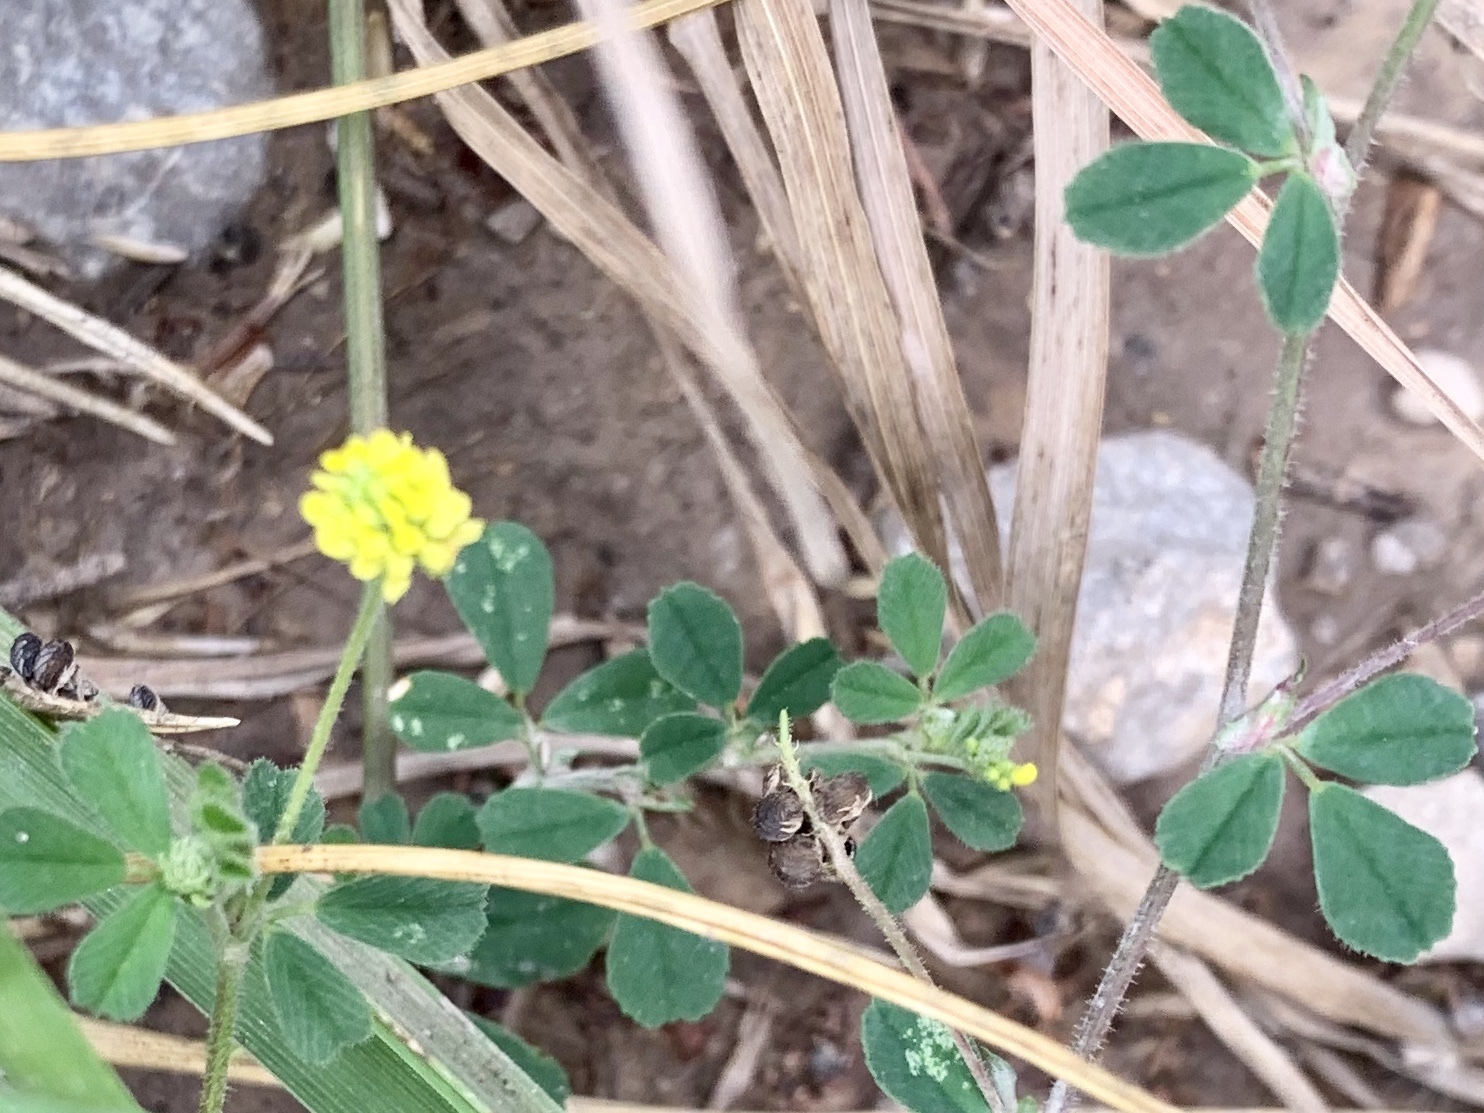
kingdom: Plantae
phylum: Tracheophyta
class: Magnoliopsida
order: Fabales
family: Fabaceae
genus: Medicago
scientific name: Medicago lupulina
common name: Black medick
